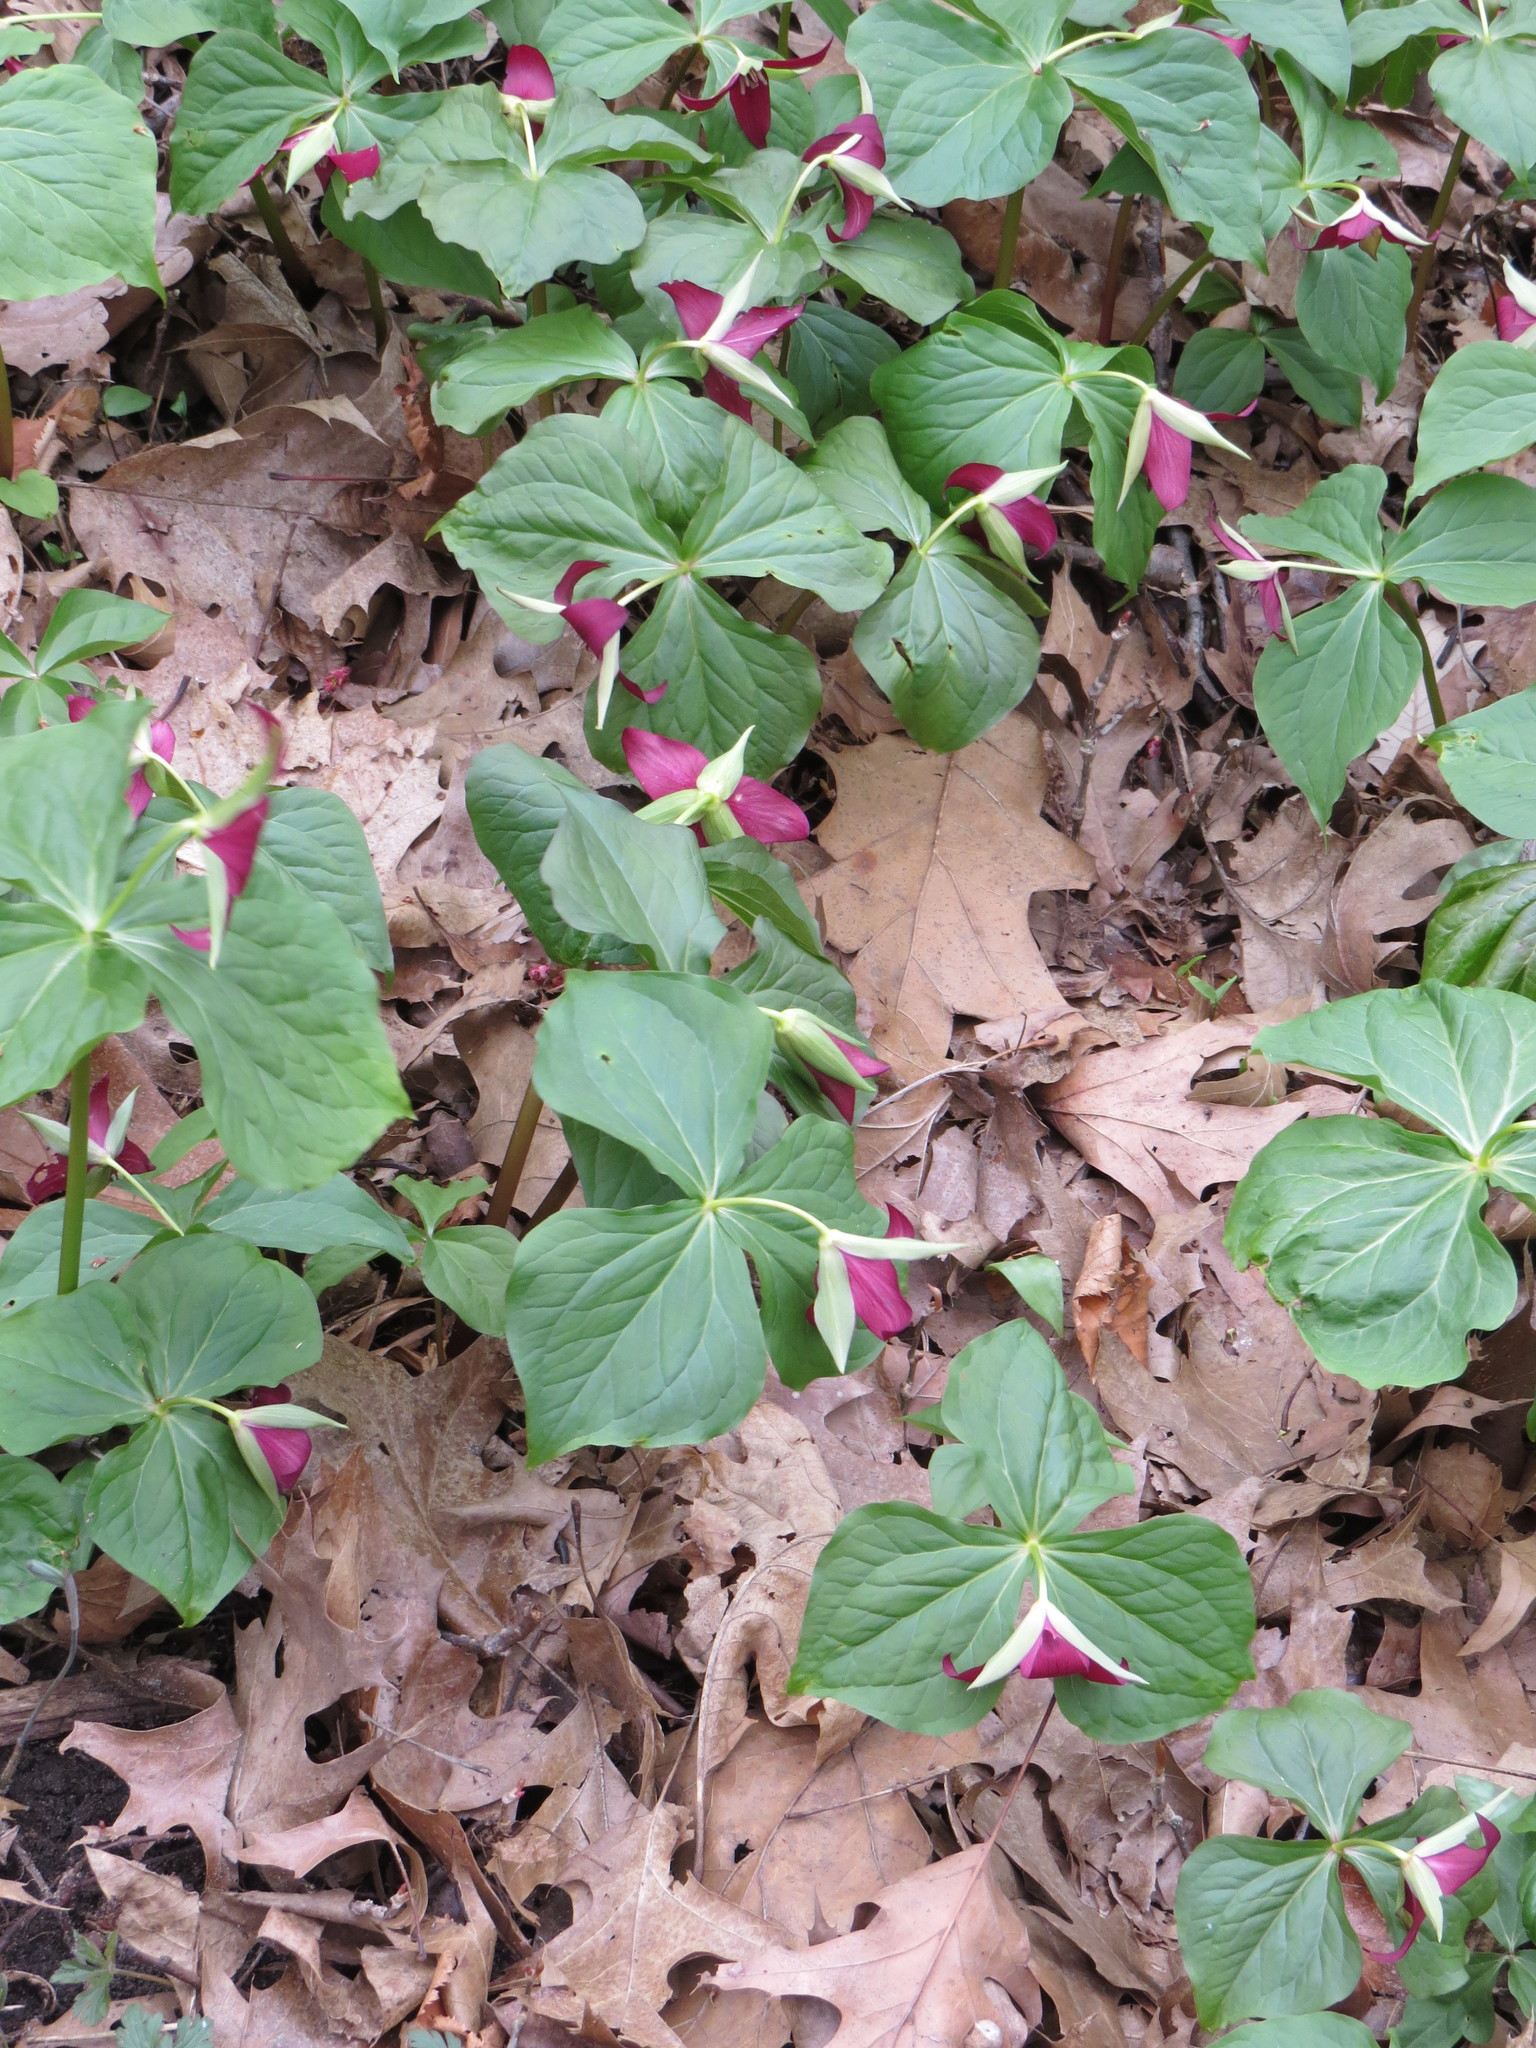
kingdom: Plantae
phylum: Tracheophyta
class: Liliopsida
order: Liliales
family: Melanthiaceae
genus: Trillium
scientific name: Trillium erectum
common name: Purple trillium
